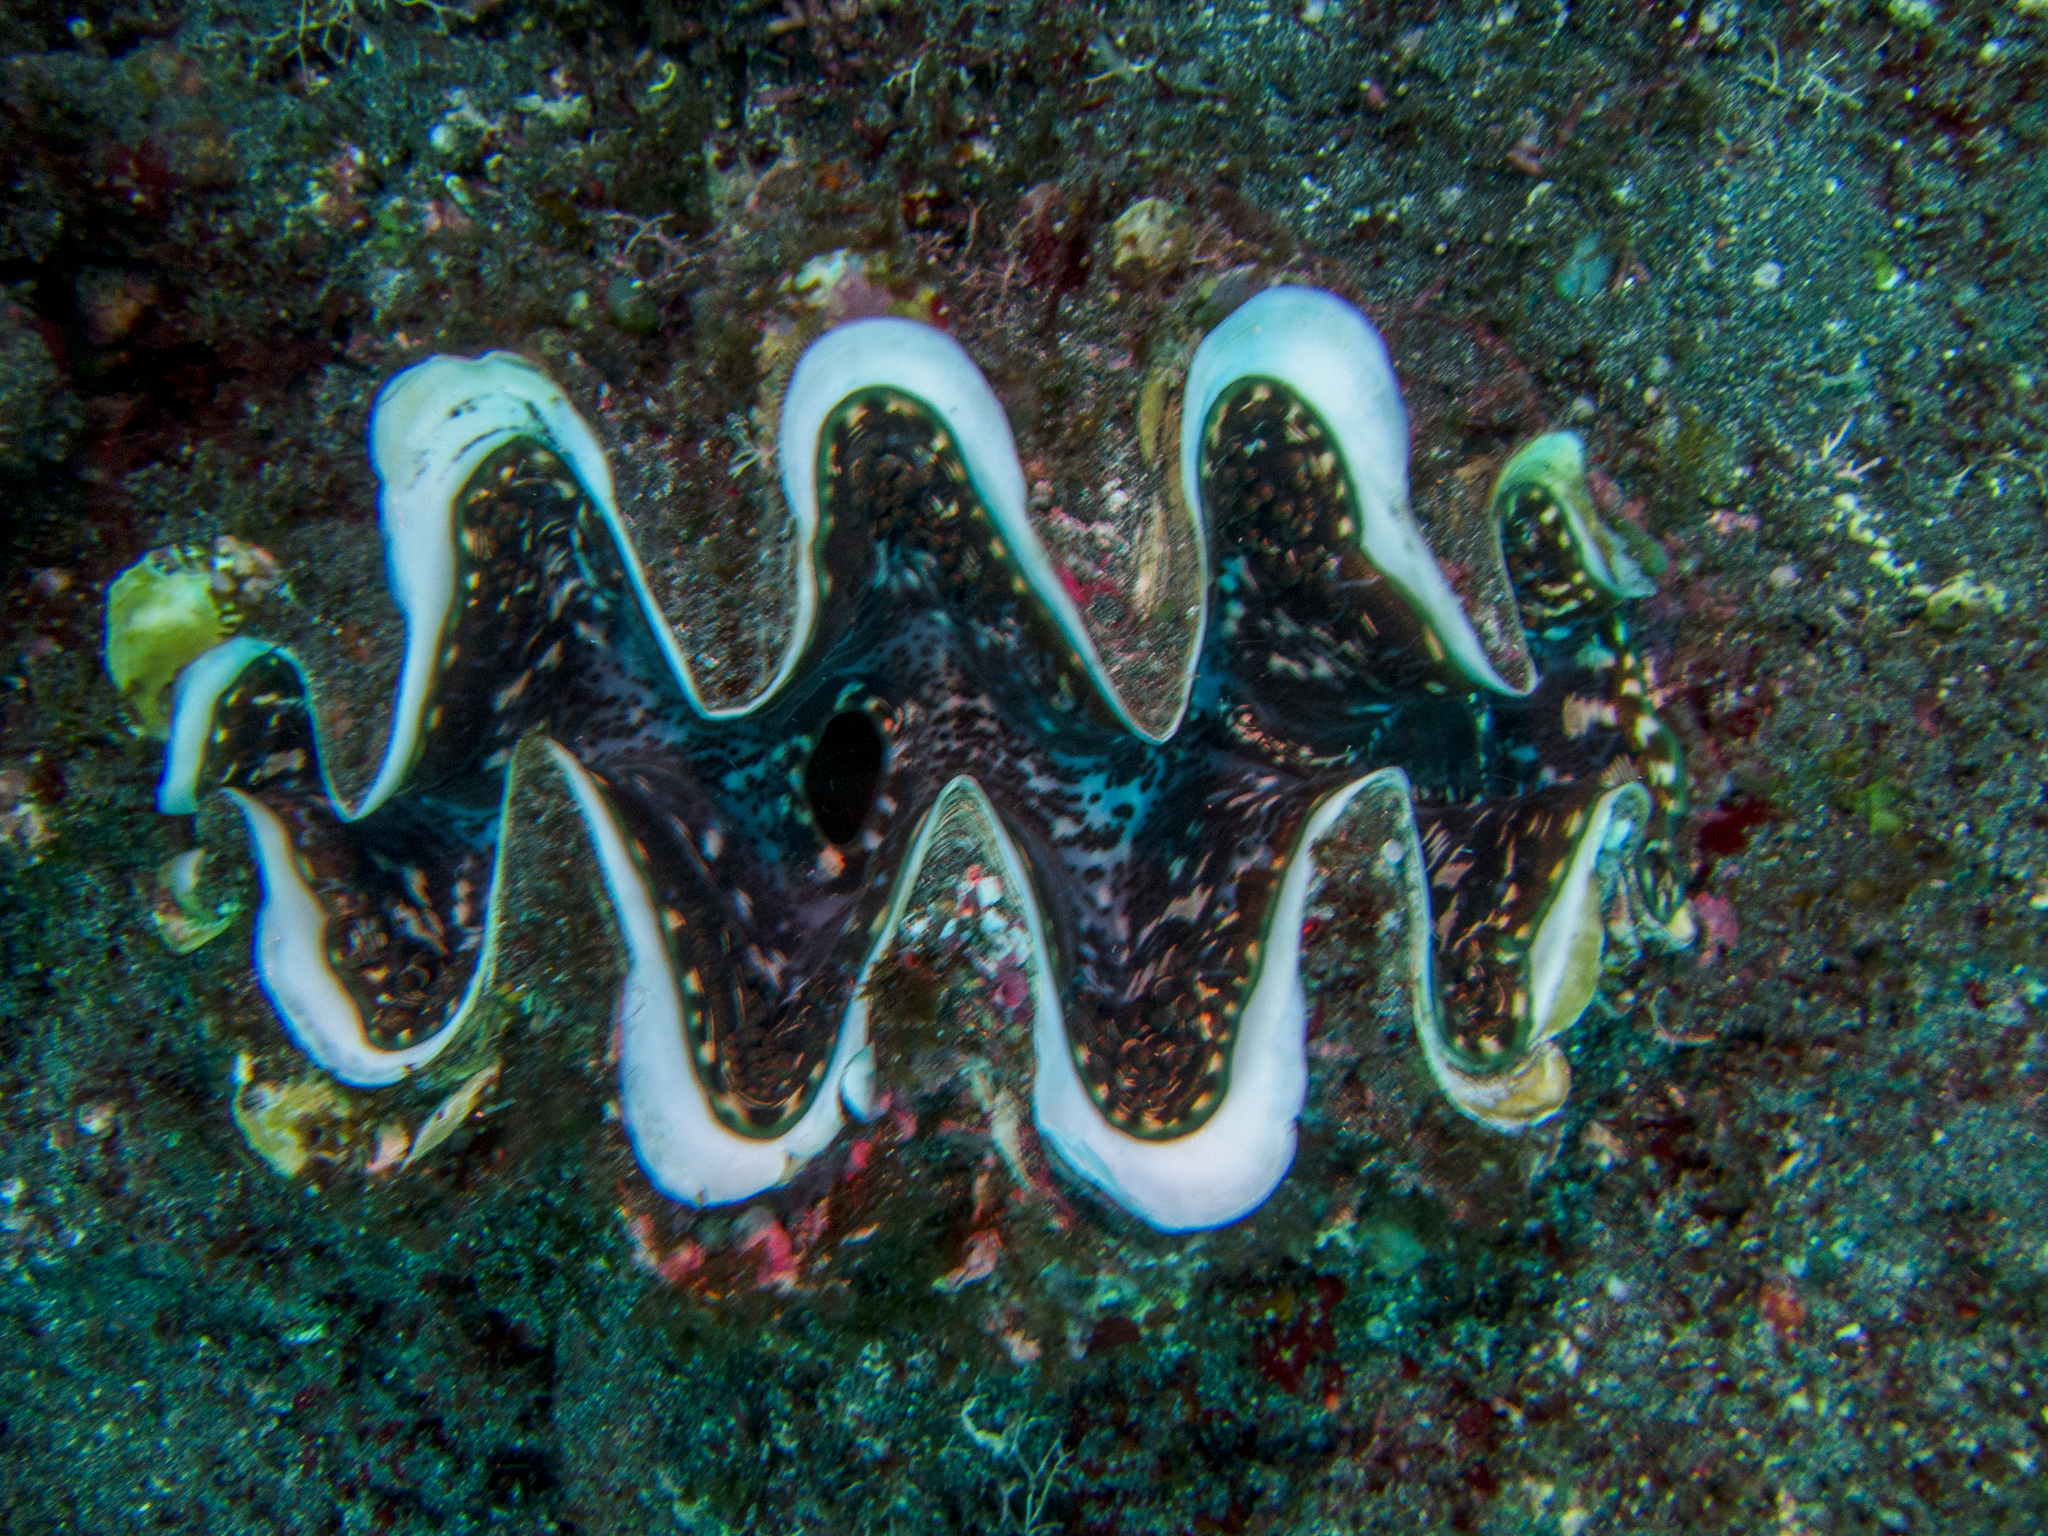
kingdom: Animalia
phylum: Mollusca
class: Bivalvia
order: Cardiida
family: Cardiidae
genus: Tridacna
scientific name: Tridacna rosewateri
